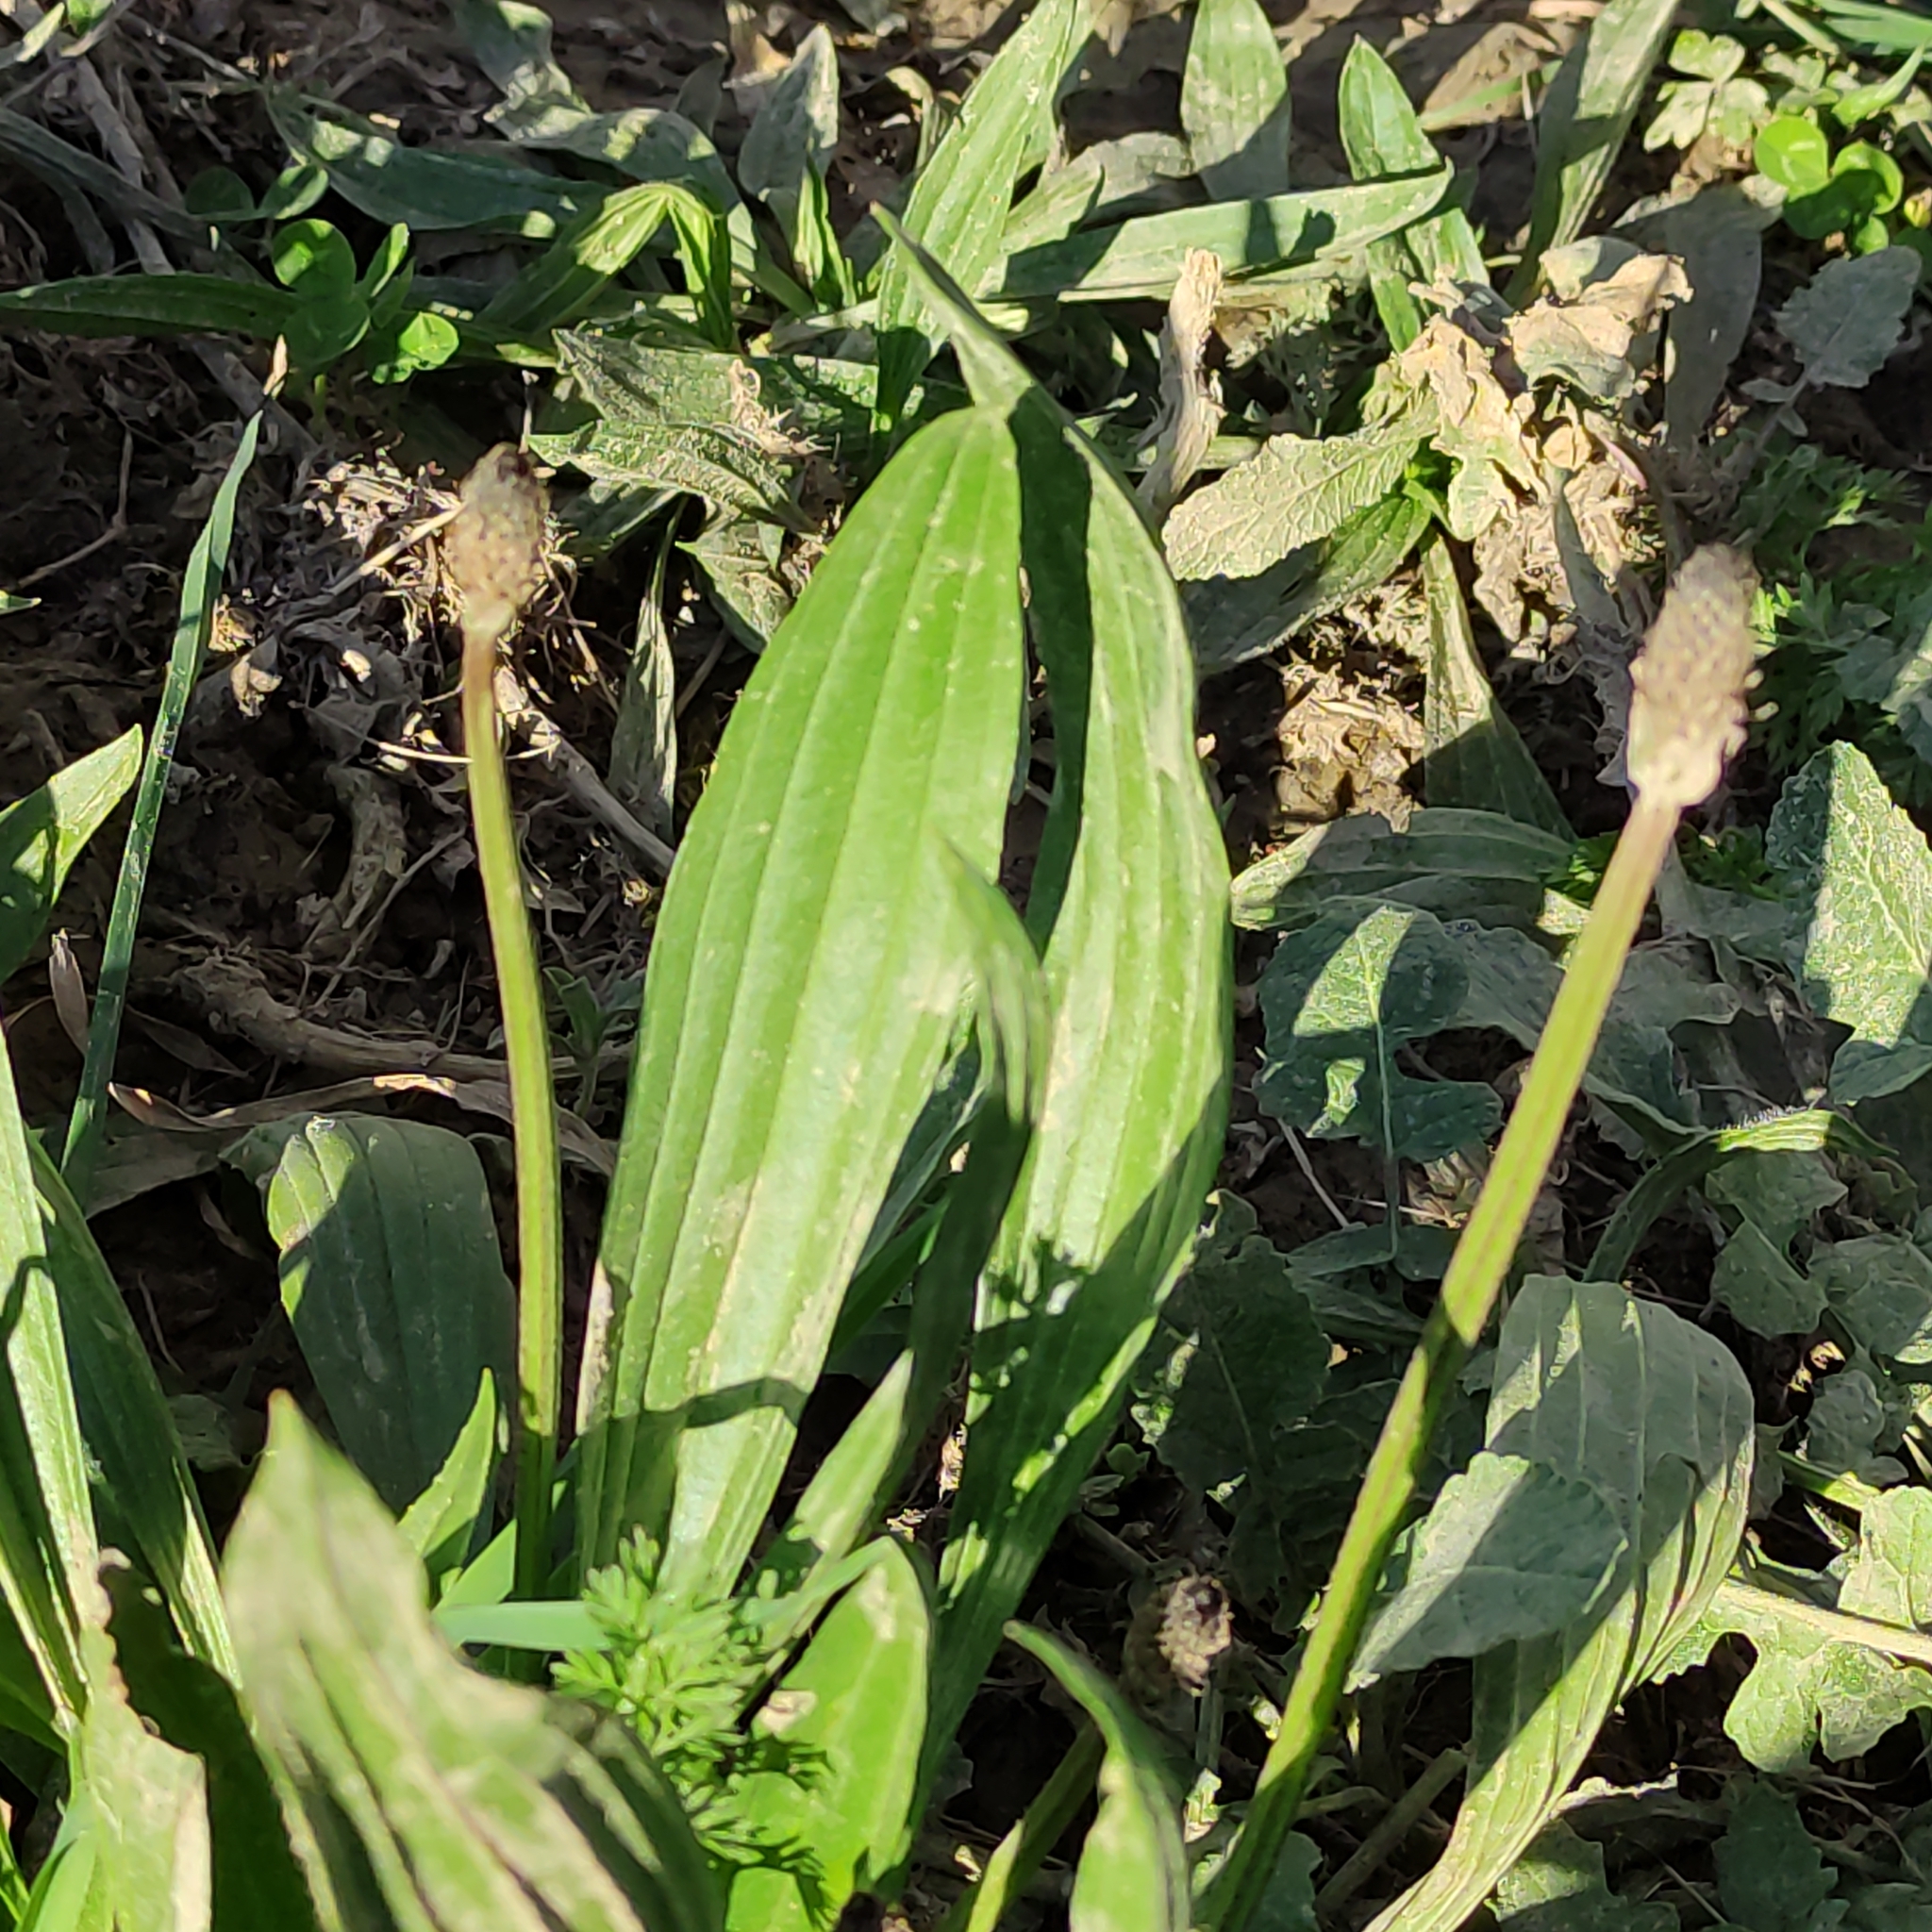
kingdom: Plantae
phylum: Tracheophyta
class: Magnoliopsida
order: Lamiales
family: Plantaginaceae
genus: Plantago
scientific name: Plantago lanceolata
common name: Ribwort plantain
